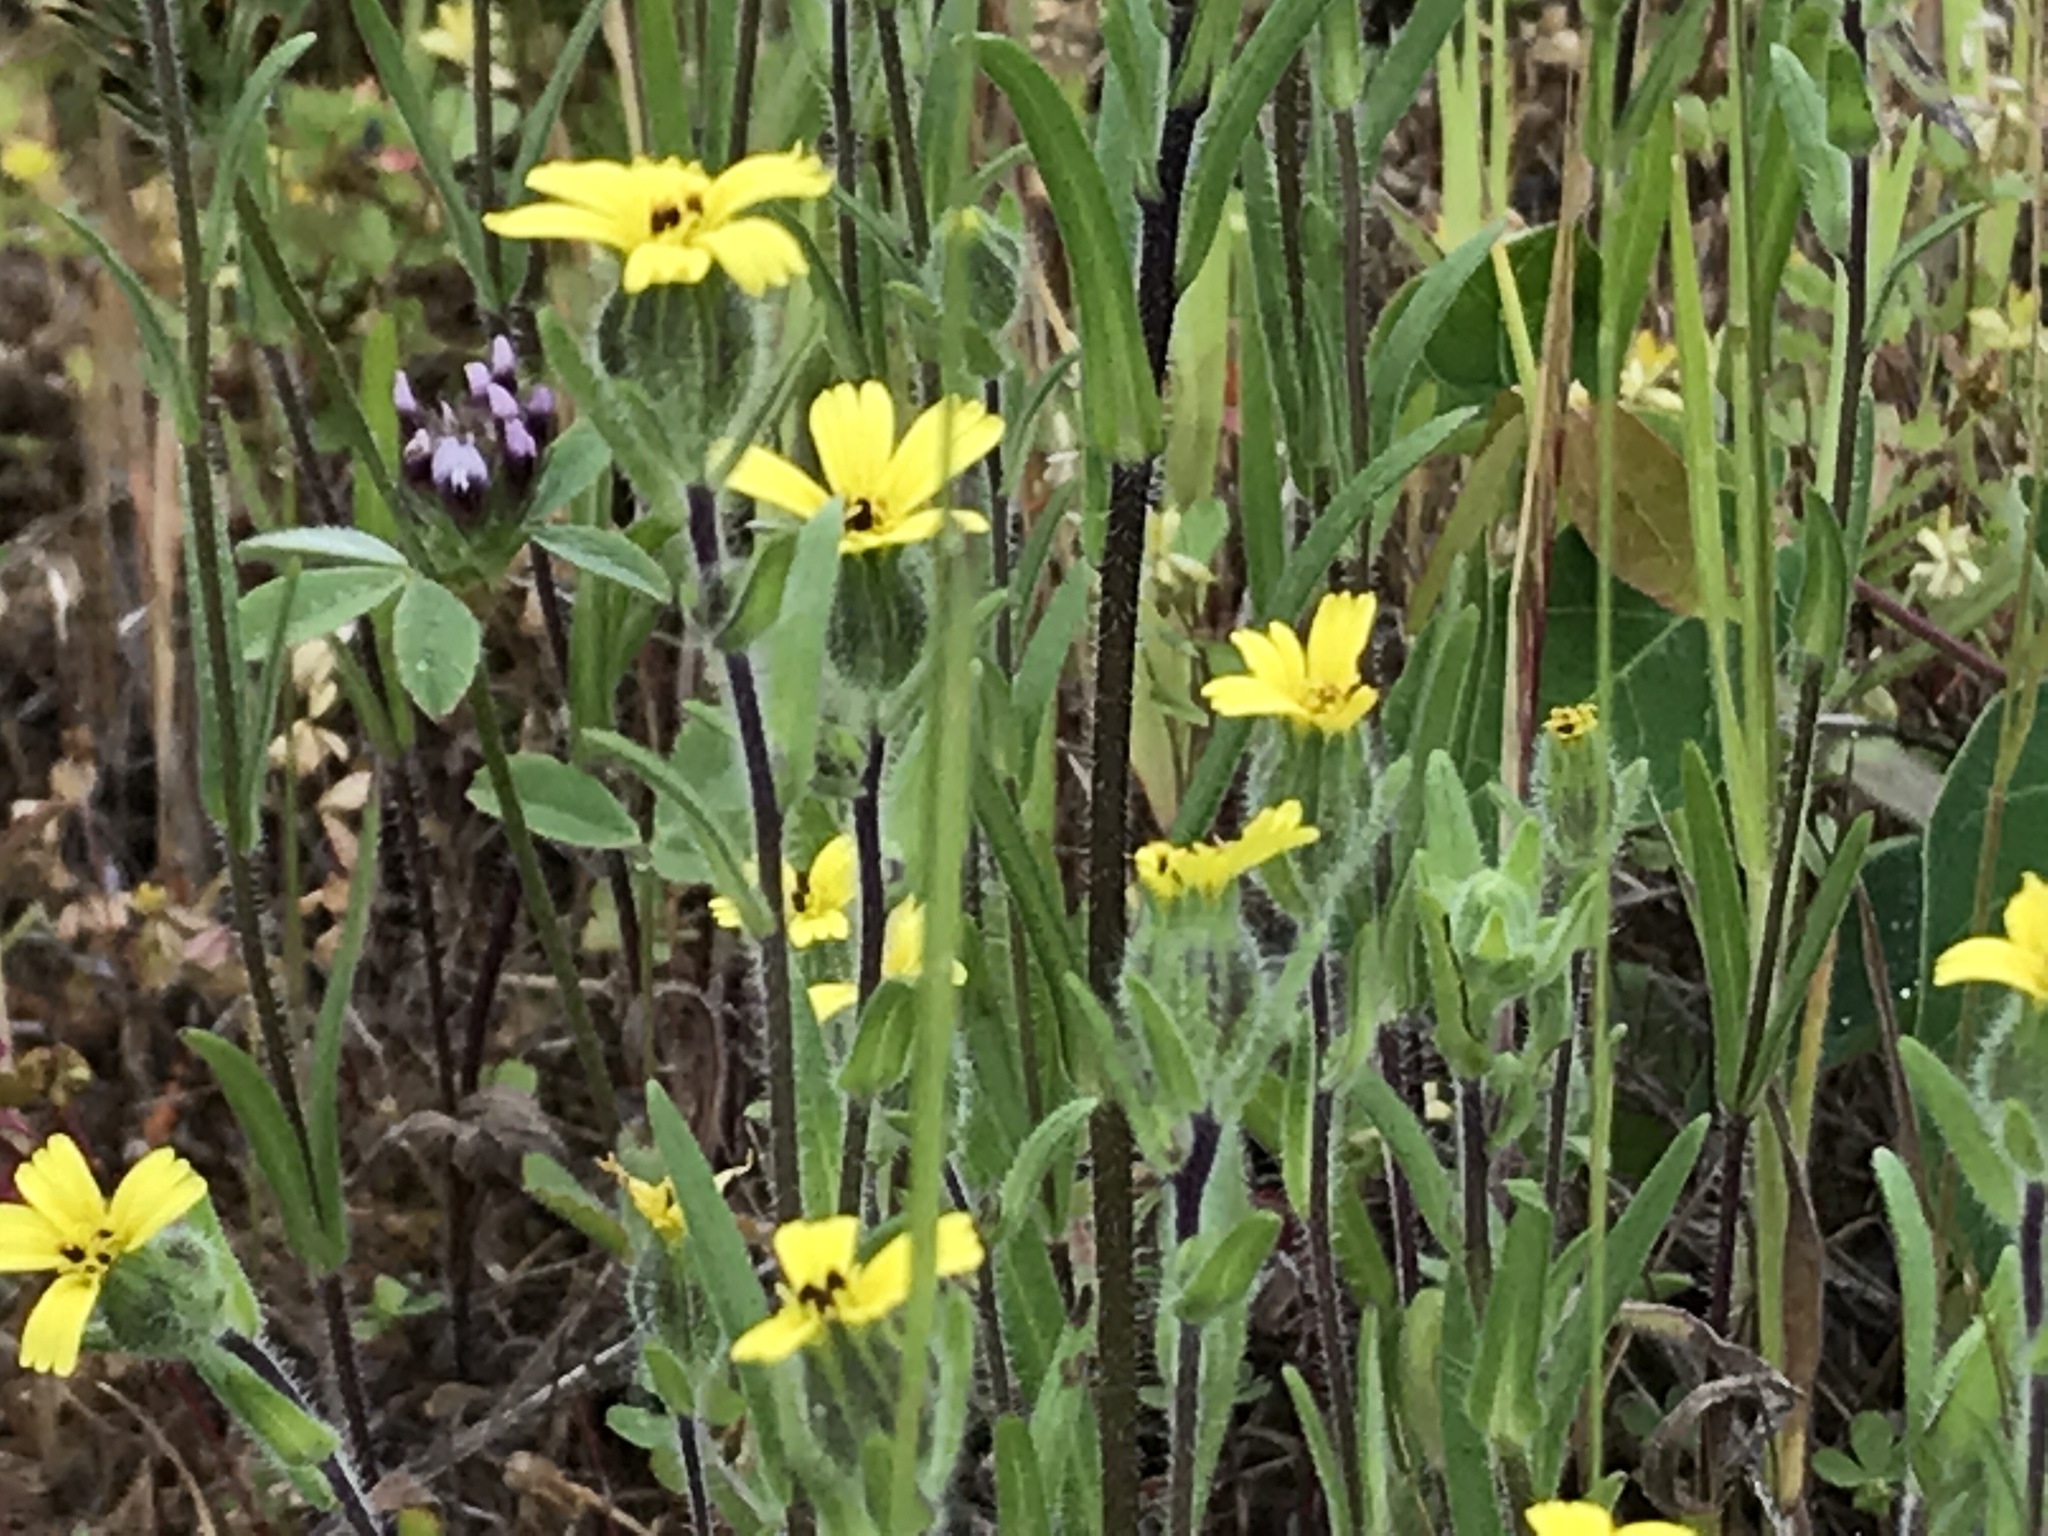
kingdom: Plantae
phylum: Tracheophyta
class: Magnoliopsida
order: Asterales
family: Asteraceae
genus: Madia
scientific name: Madia gracilis
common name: Grassy tarweed
